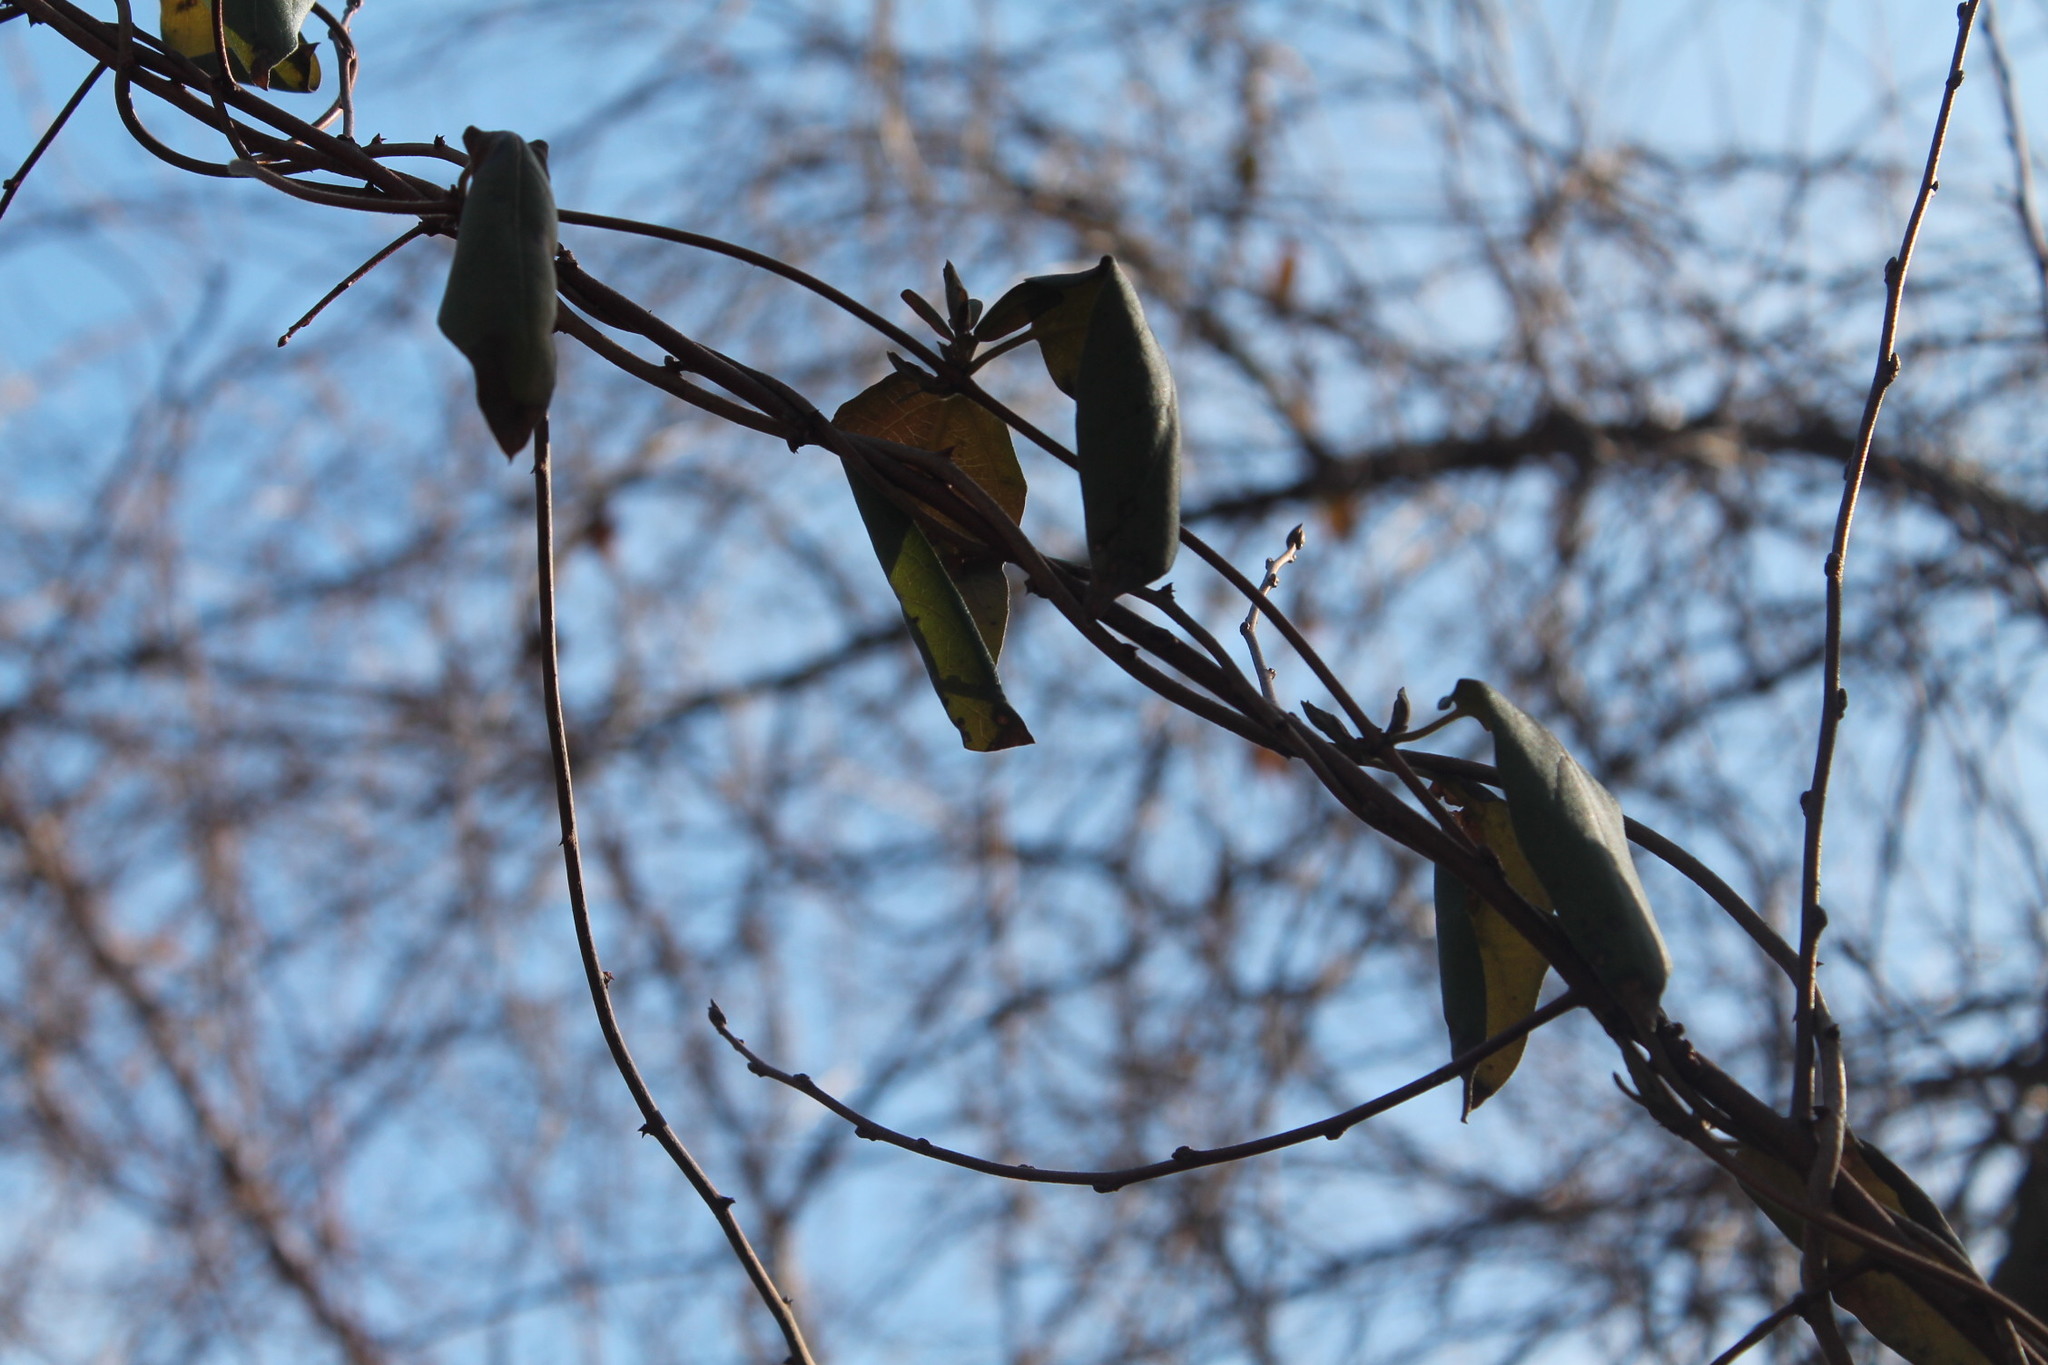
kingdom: Plantae
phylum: Tracheophyta
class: Magnoliopsida
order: Dipsacales
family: Caprifoliaceae
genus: Lonicera
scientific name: Lonicera japonica
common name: Japanese honeysuckle
